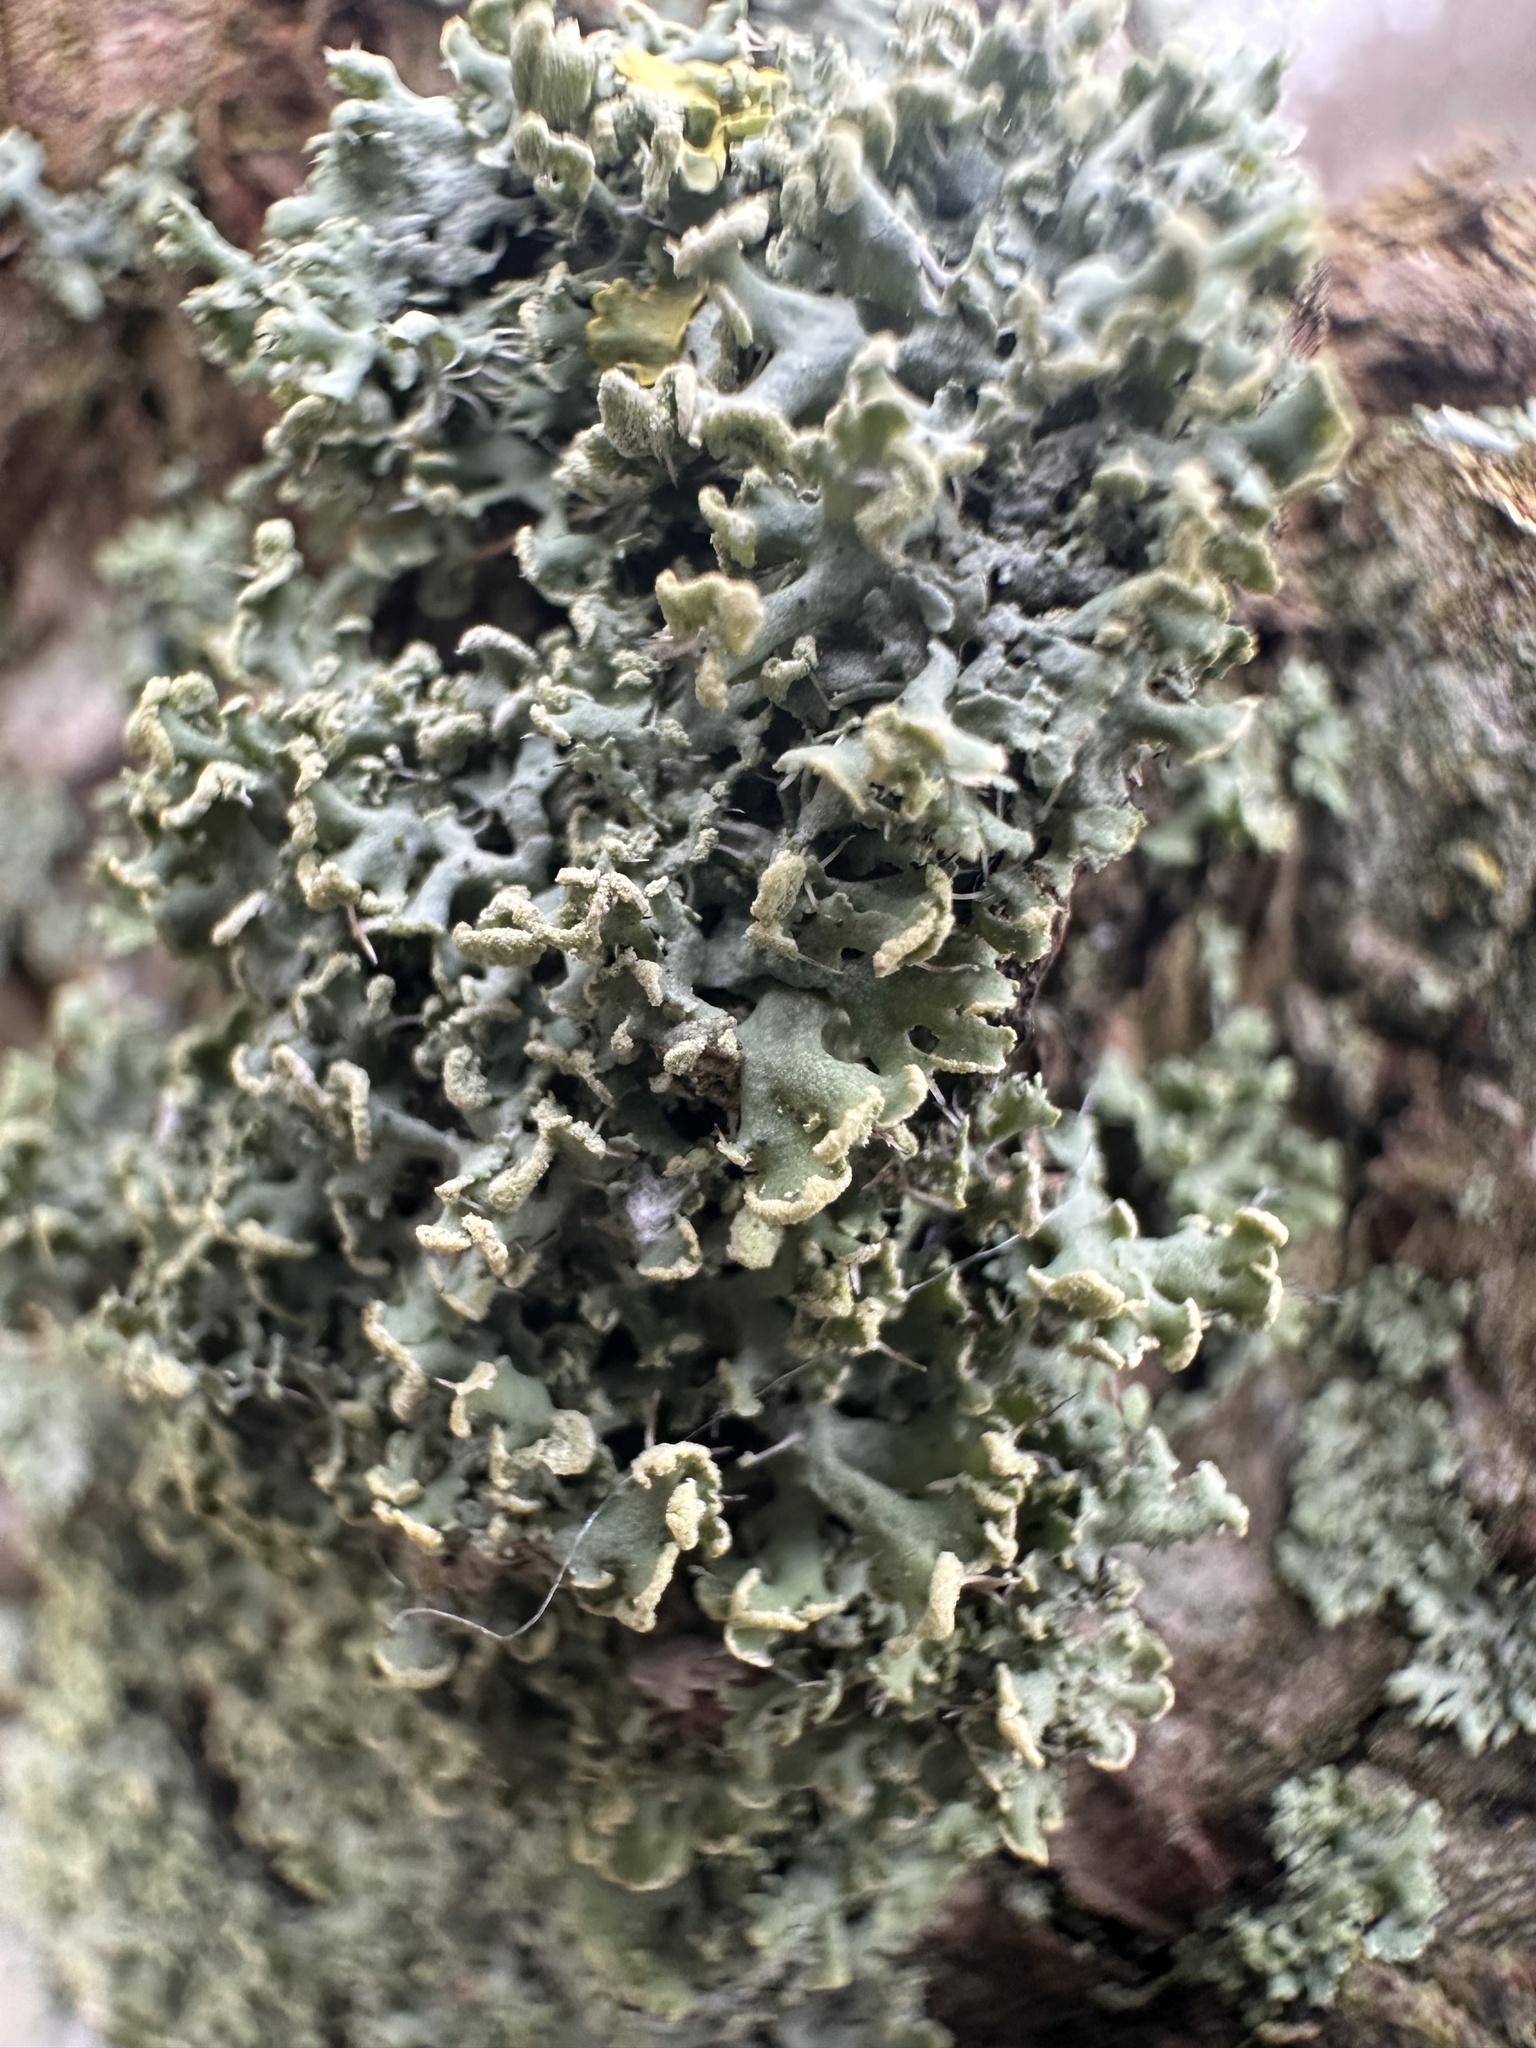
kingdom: Fungi
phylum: Ascomycota
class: Lecanoromycetes
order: Caliciales
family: Physciaceae
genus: Physcia
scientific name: Physcia tenella
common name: Fringed rosette lichen
